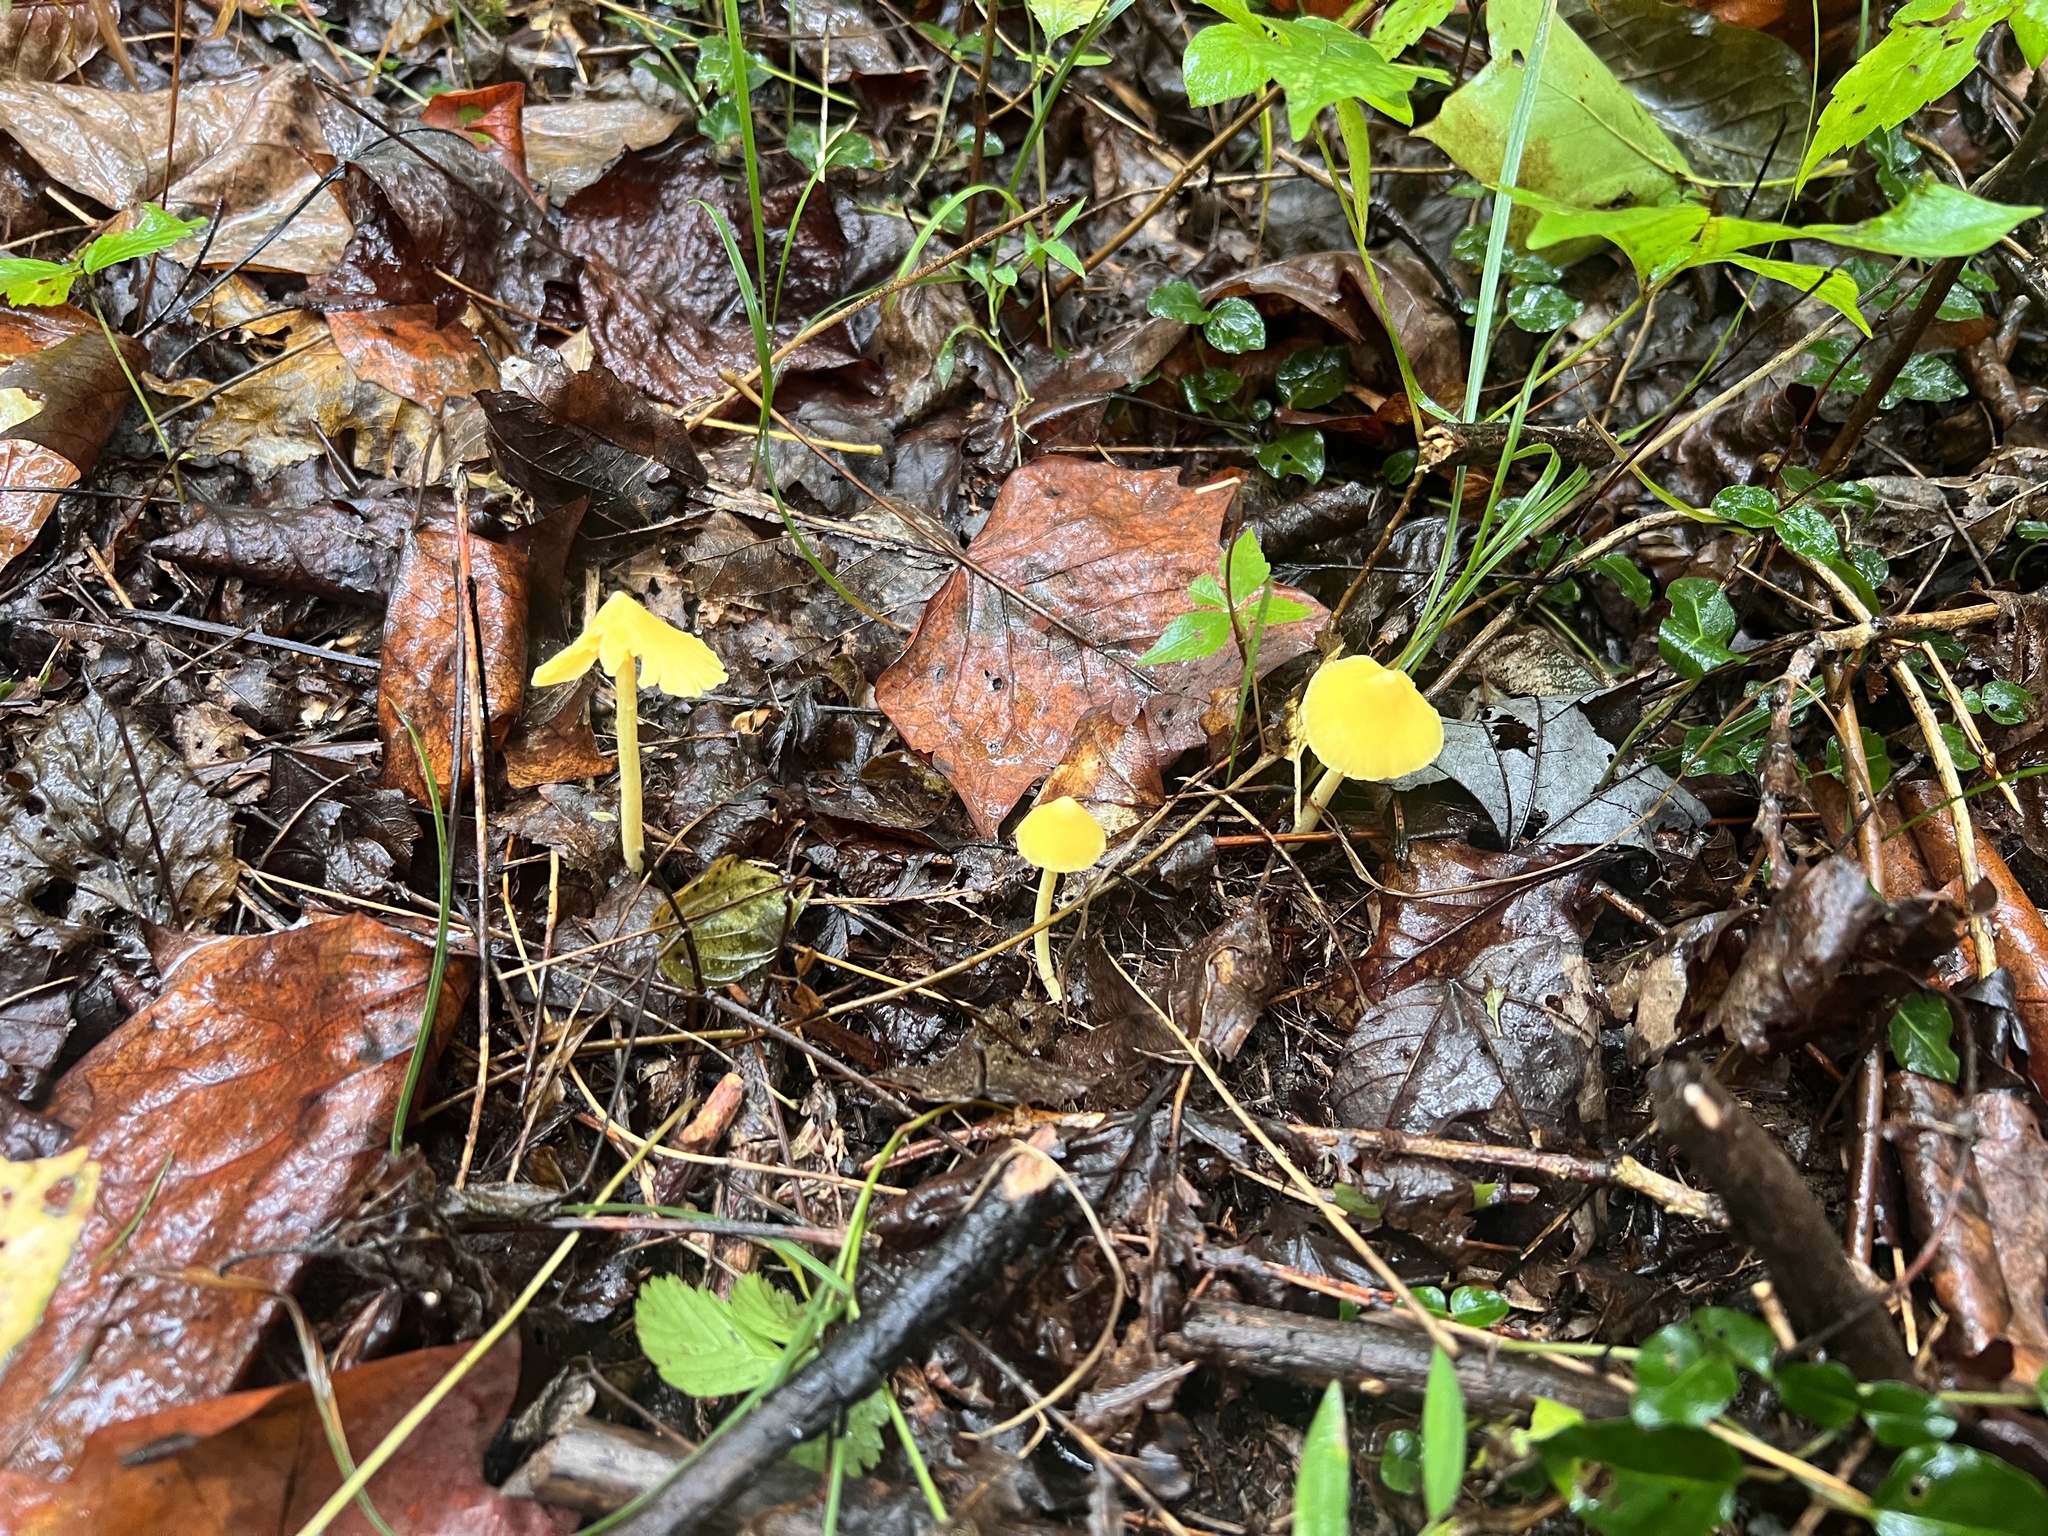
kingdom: Fungi
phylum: Basidiomycota
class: Agaricomycetes
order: Agaricales
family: Entolomataceae
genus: Entoloma
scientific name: Entoloma murrayi
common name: Yellow unicorn entoloma
